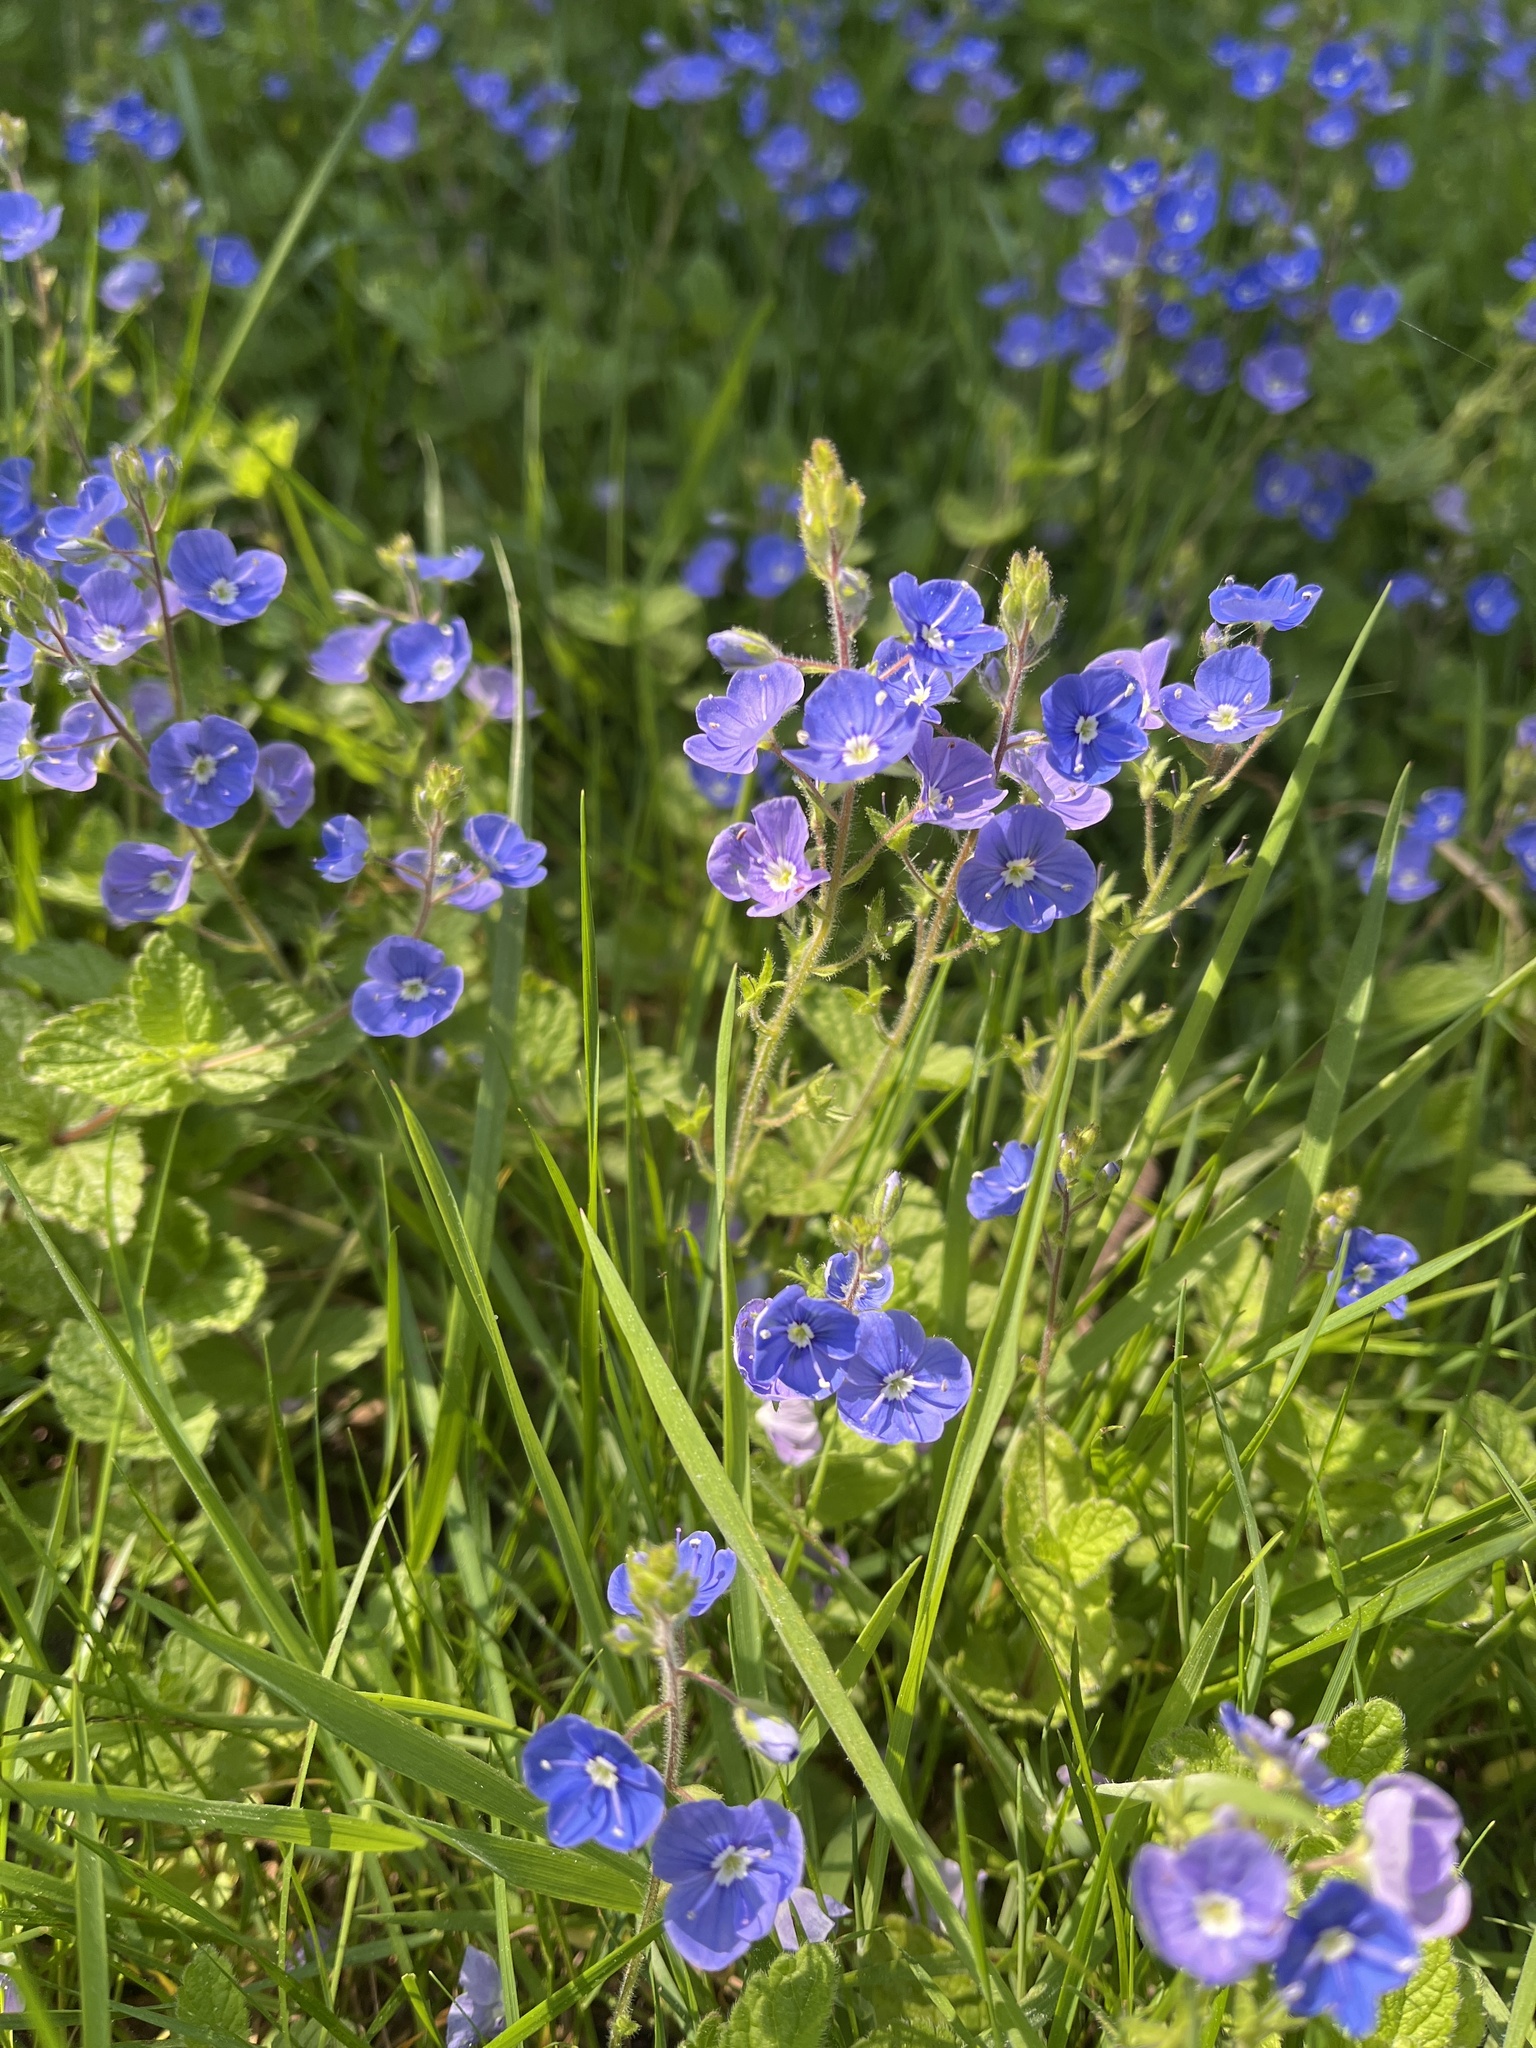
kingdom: Plantae
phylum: Tracheophyta
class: Magnoliopsida
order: Lamiales
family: Plantaginaceae
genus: Veronica
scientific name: Veronica chamaedrys
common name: Germander speedwell
